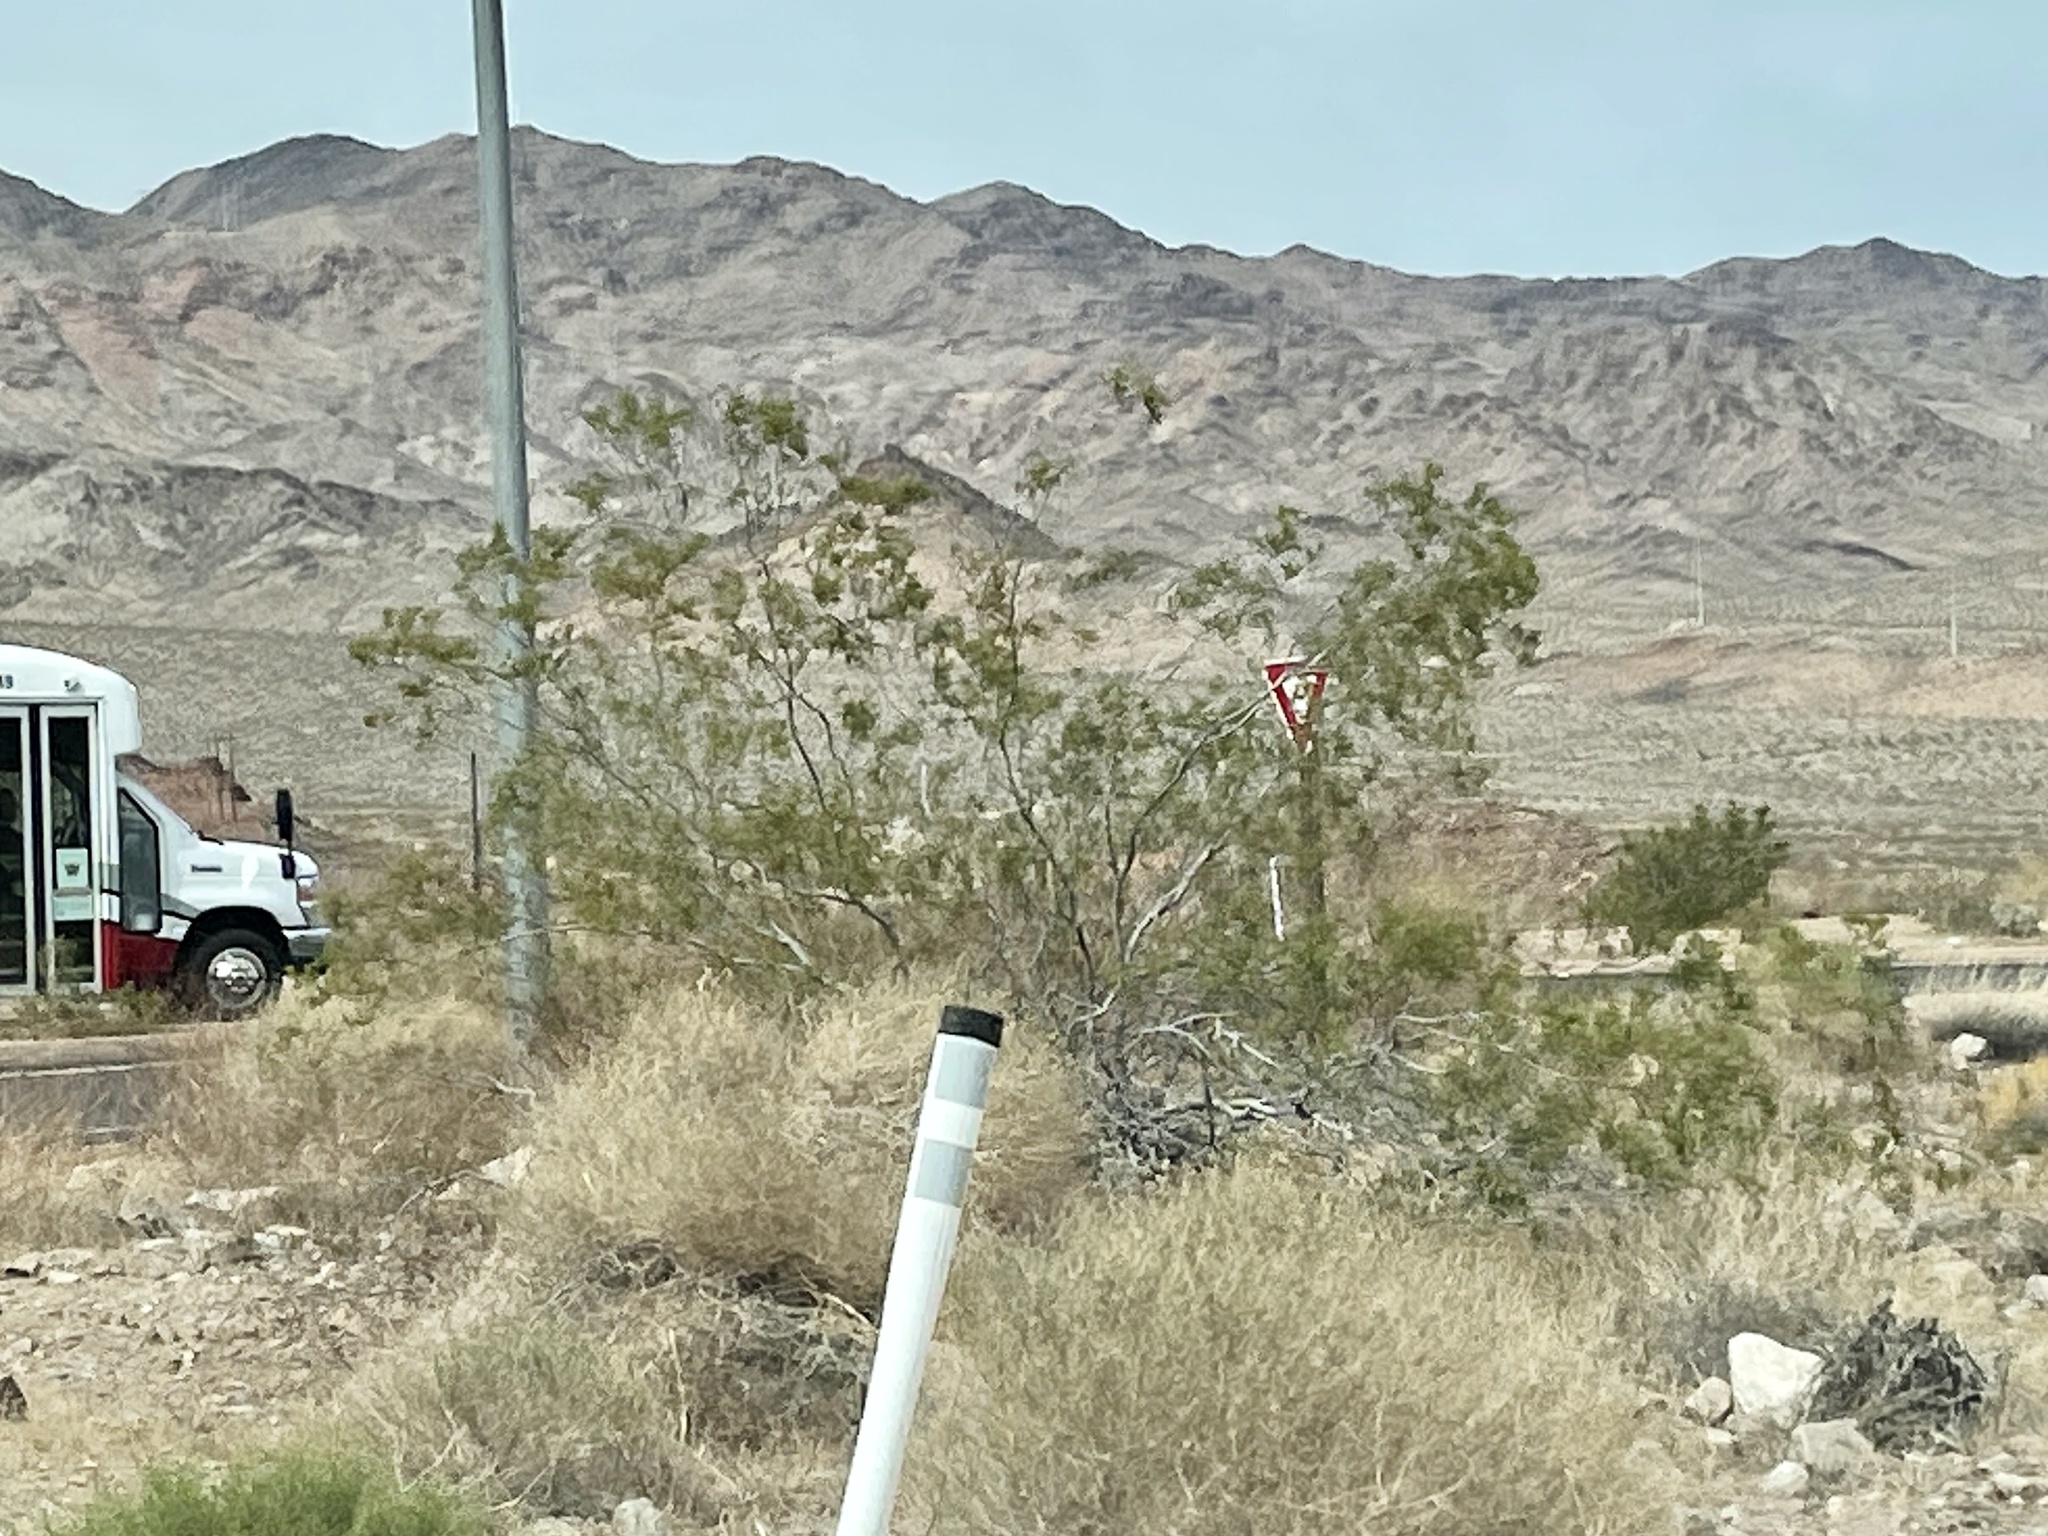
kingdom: Plantae
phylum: Tracheophyta
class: Magnoliopsida
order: Zygophyllales
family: Zygophyllaceae
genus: Larrea
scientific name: Larrea tridentata
